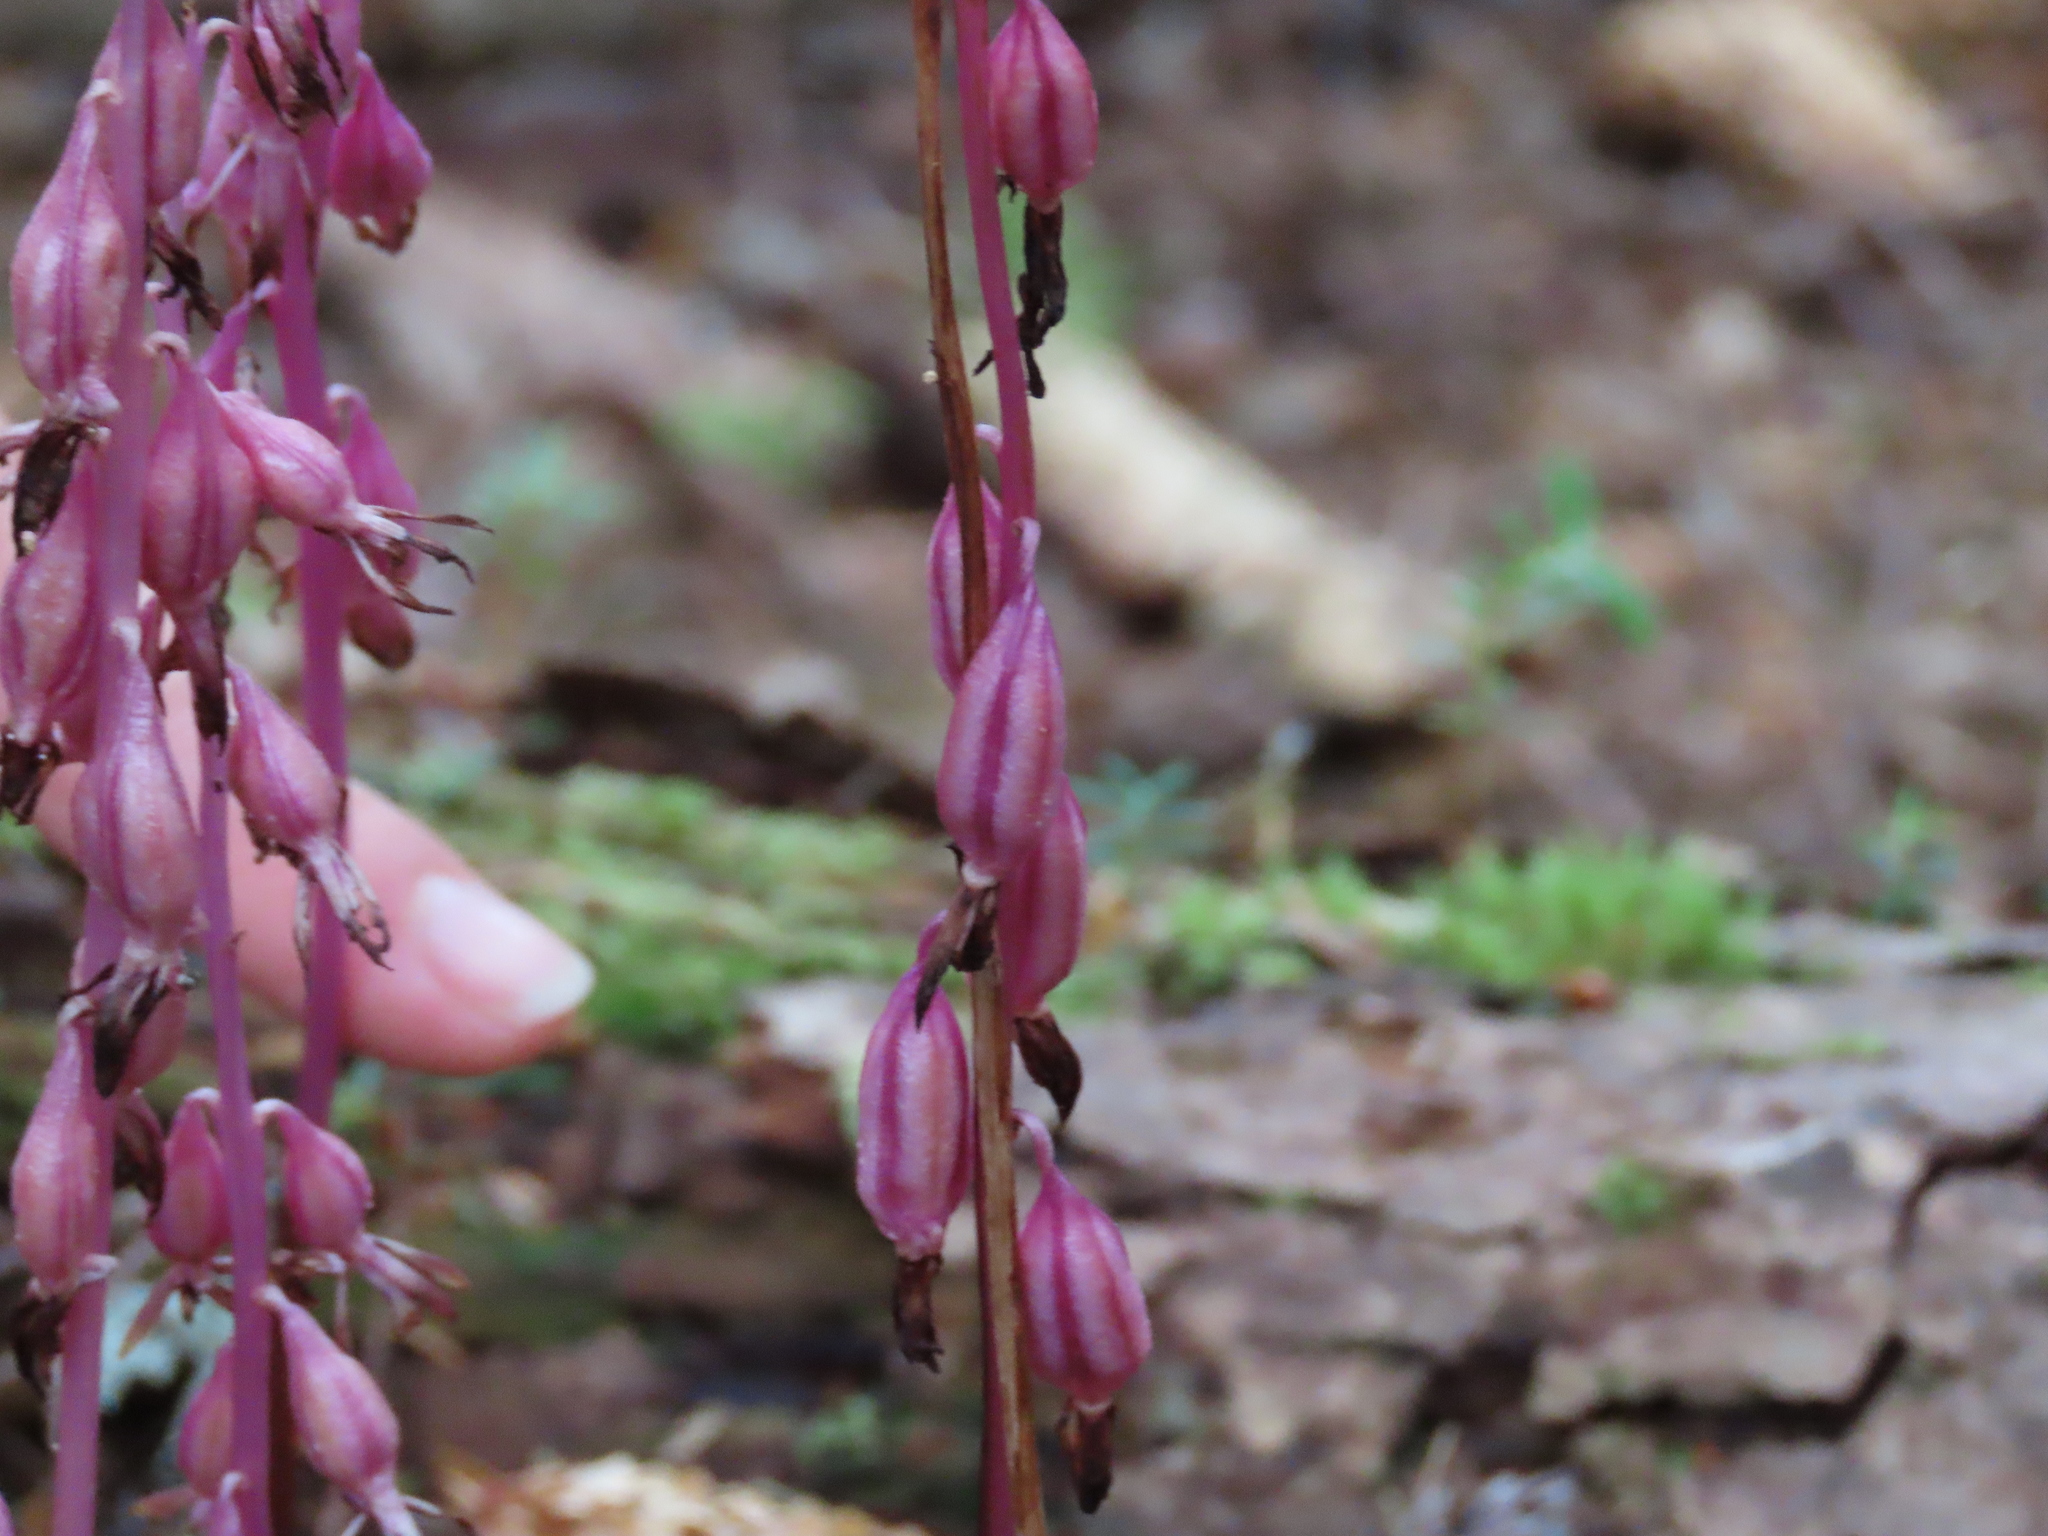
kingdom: Plantae
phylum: Tracheophyta
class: Liliopsida
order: Asparagales
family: Orchidaceae
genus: Corallorhiza
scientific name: Corallorhiza mertensiana
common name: Pacific coralroot
